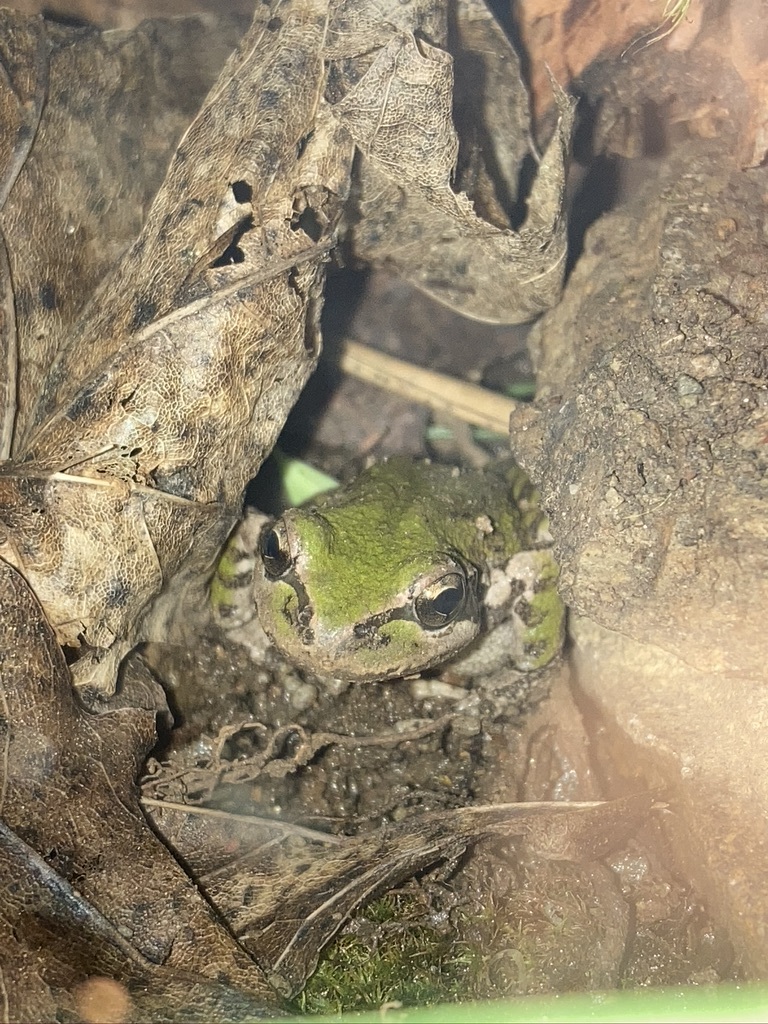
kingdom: Animalia
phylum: Chordata
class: Amphibia
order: Anura
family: Hylidae
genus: Pseudacris
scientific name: Pseudacris regilla
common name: Pacific chorus frog
